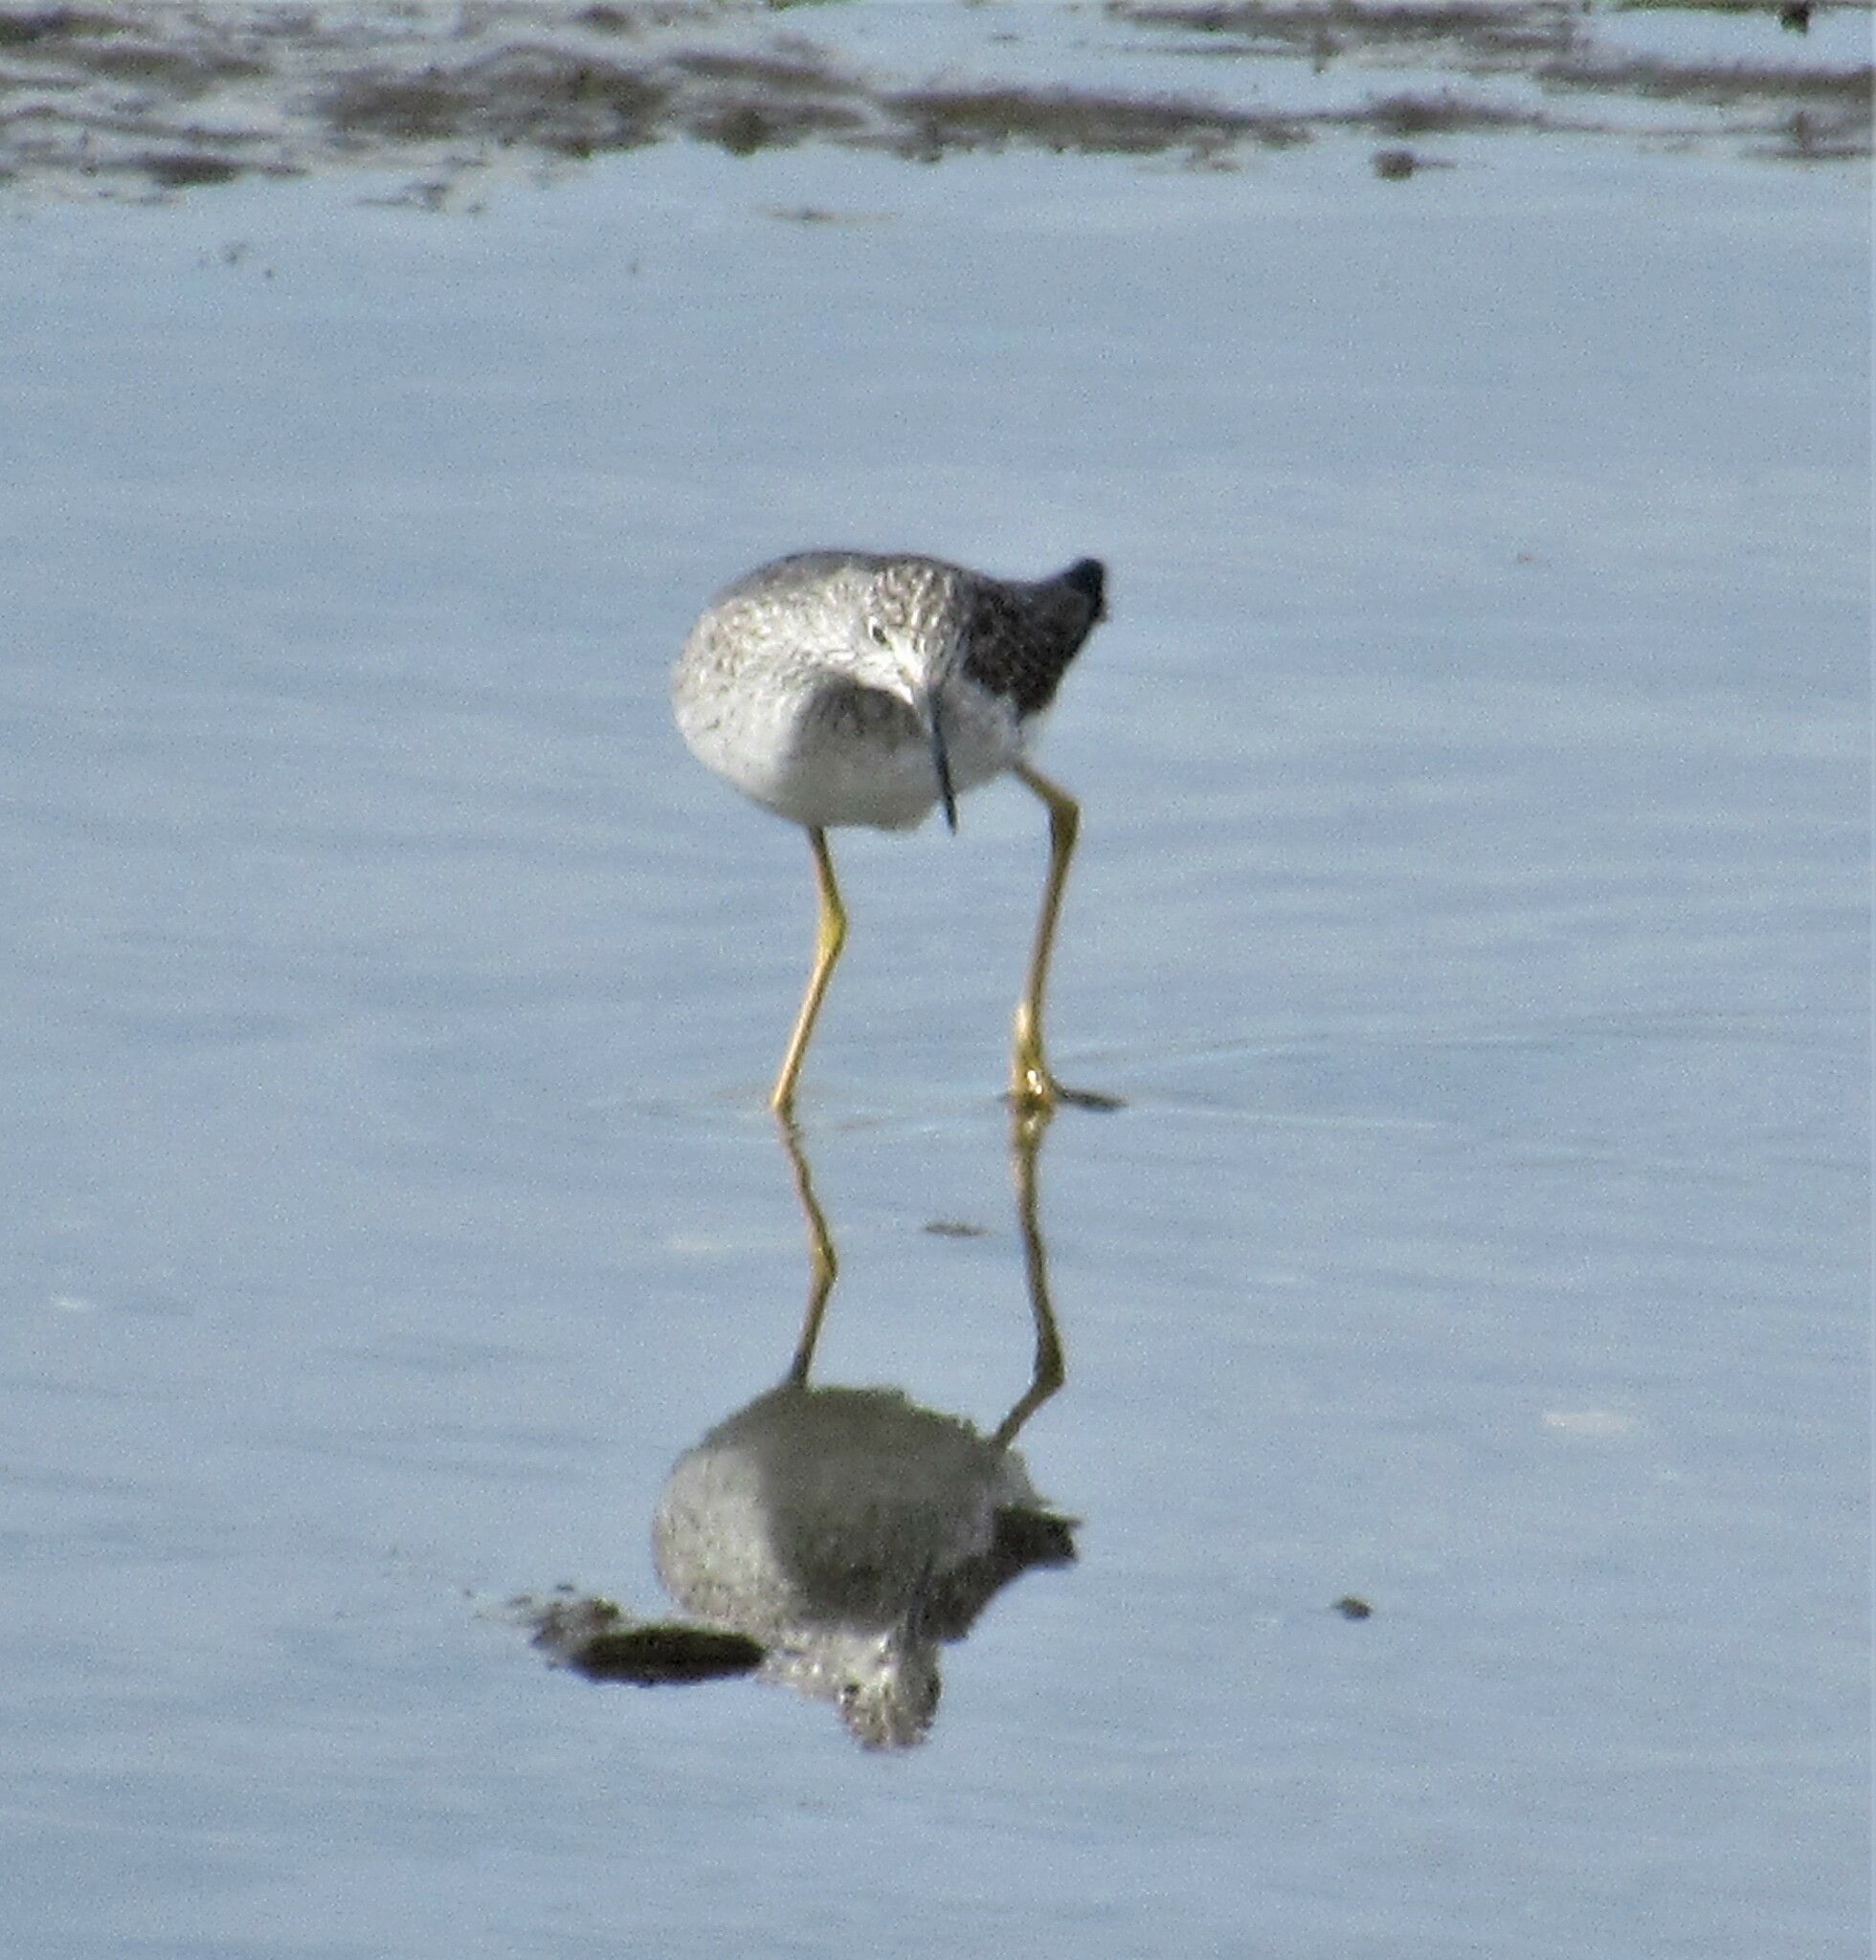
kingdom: Animalia
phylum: Chordata
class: Aves
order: Charadriiformes
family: Scolopacidae
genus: Tringa
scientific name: Tringa melanoleuca
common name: Greater yellowlegs
